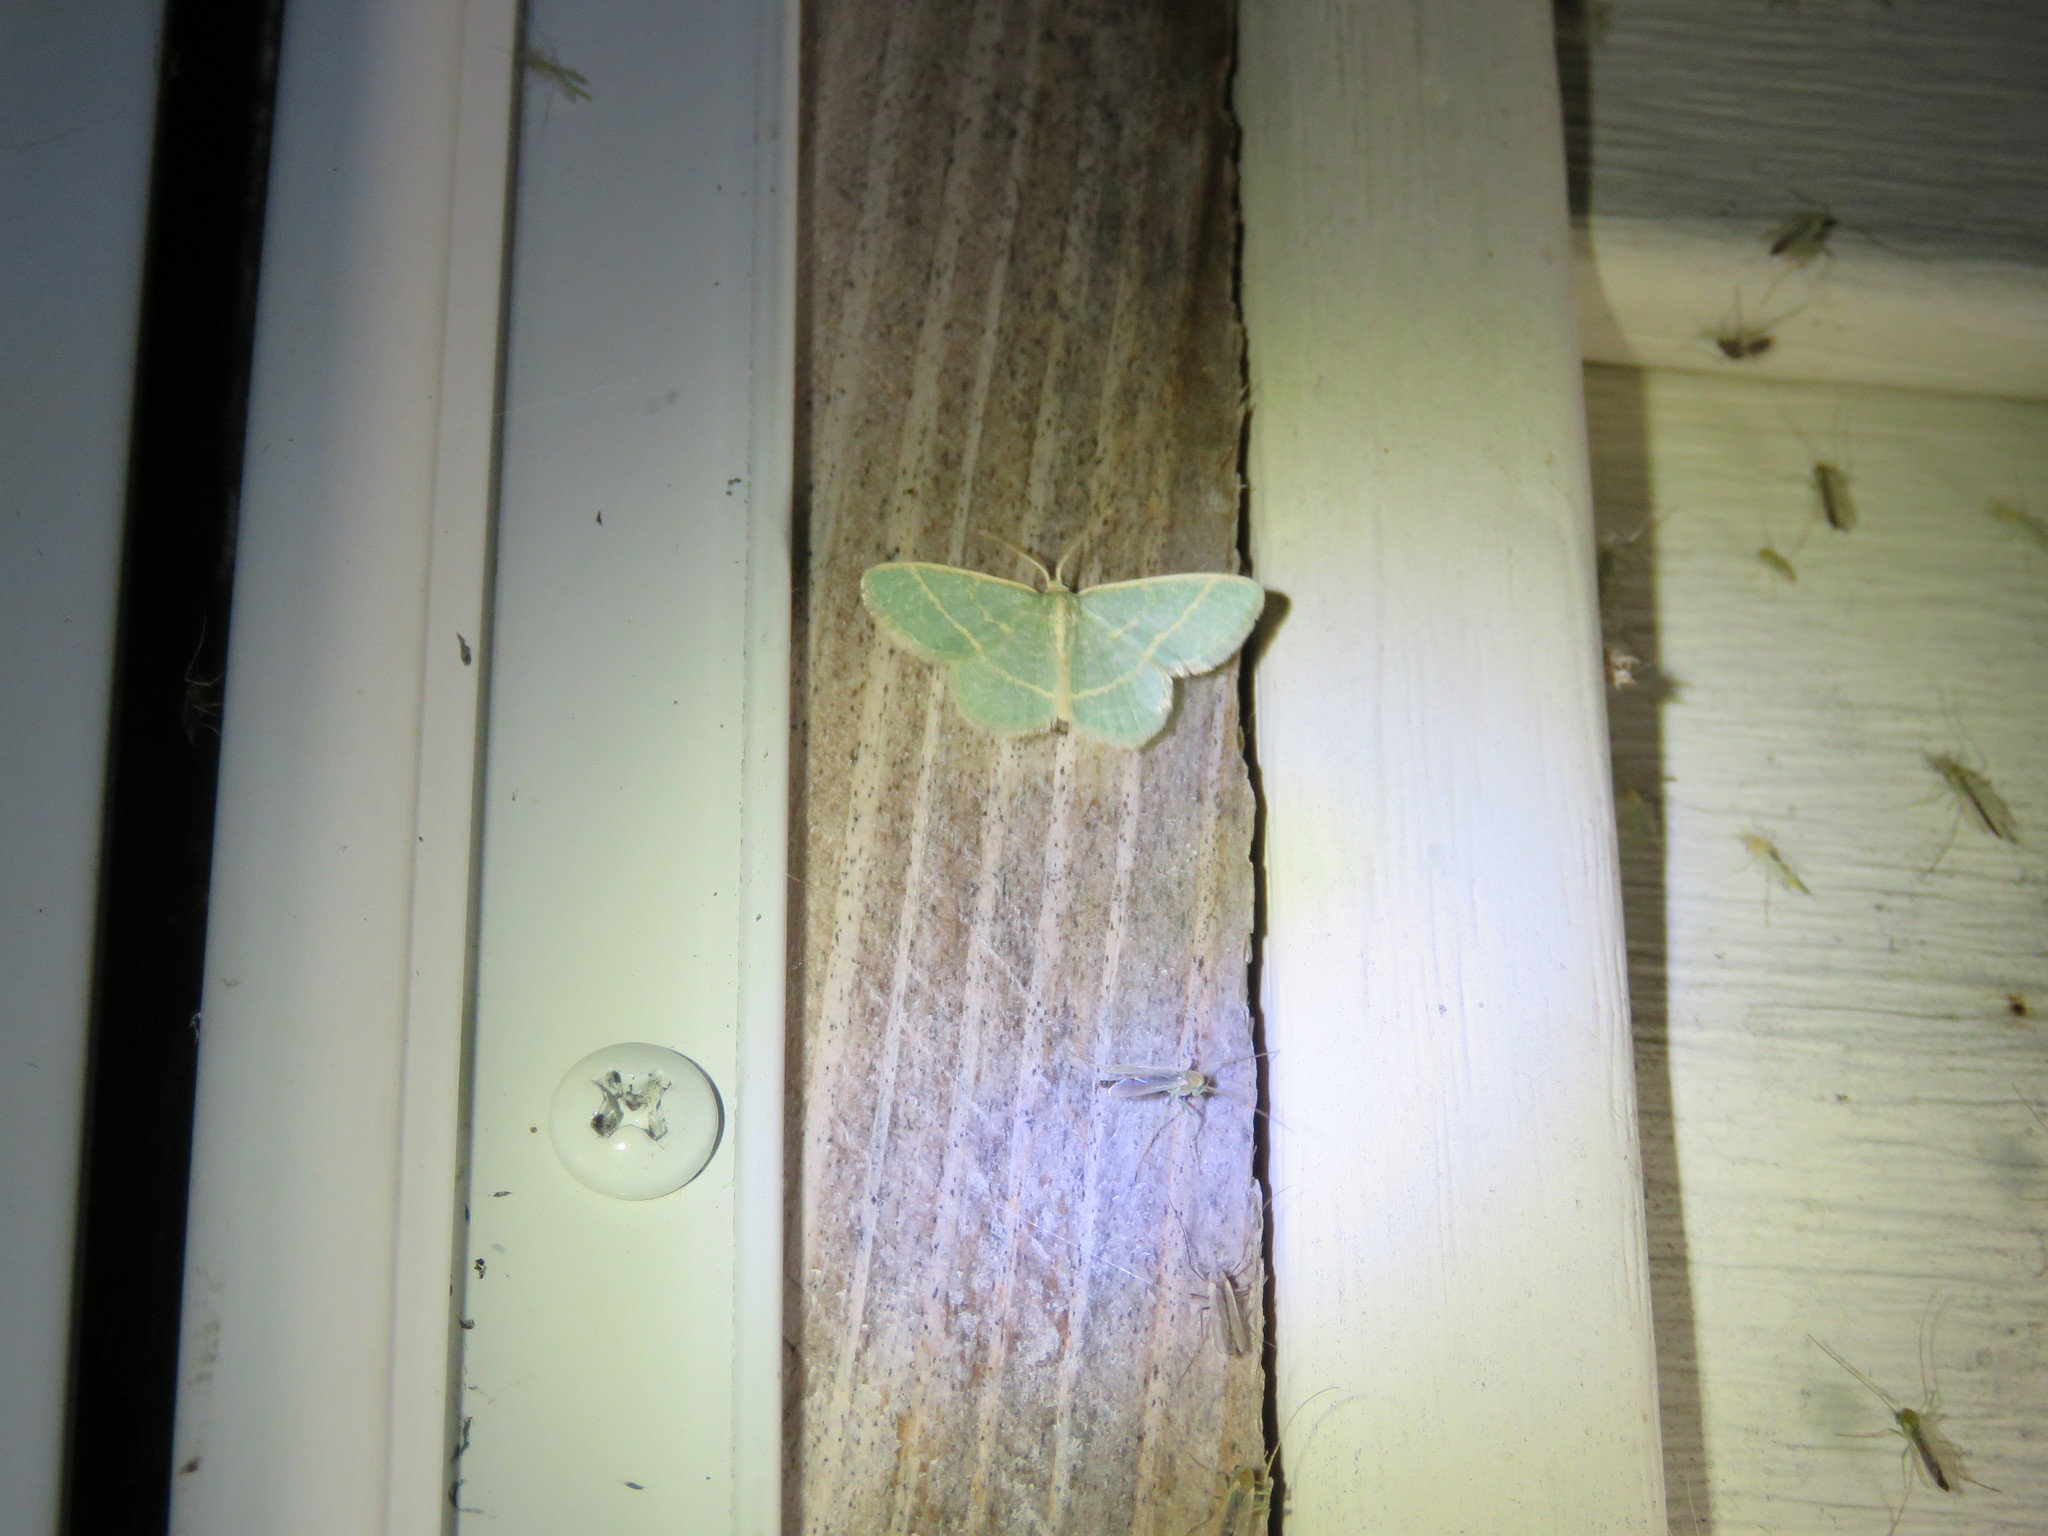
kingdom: Animalia
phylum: Arthropoda
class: Insecta
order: Lepidoptera
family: Geometridae
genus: Chlorochlamys
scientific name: Chlorochlamys chloroleucaria
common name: Blackberry looper
